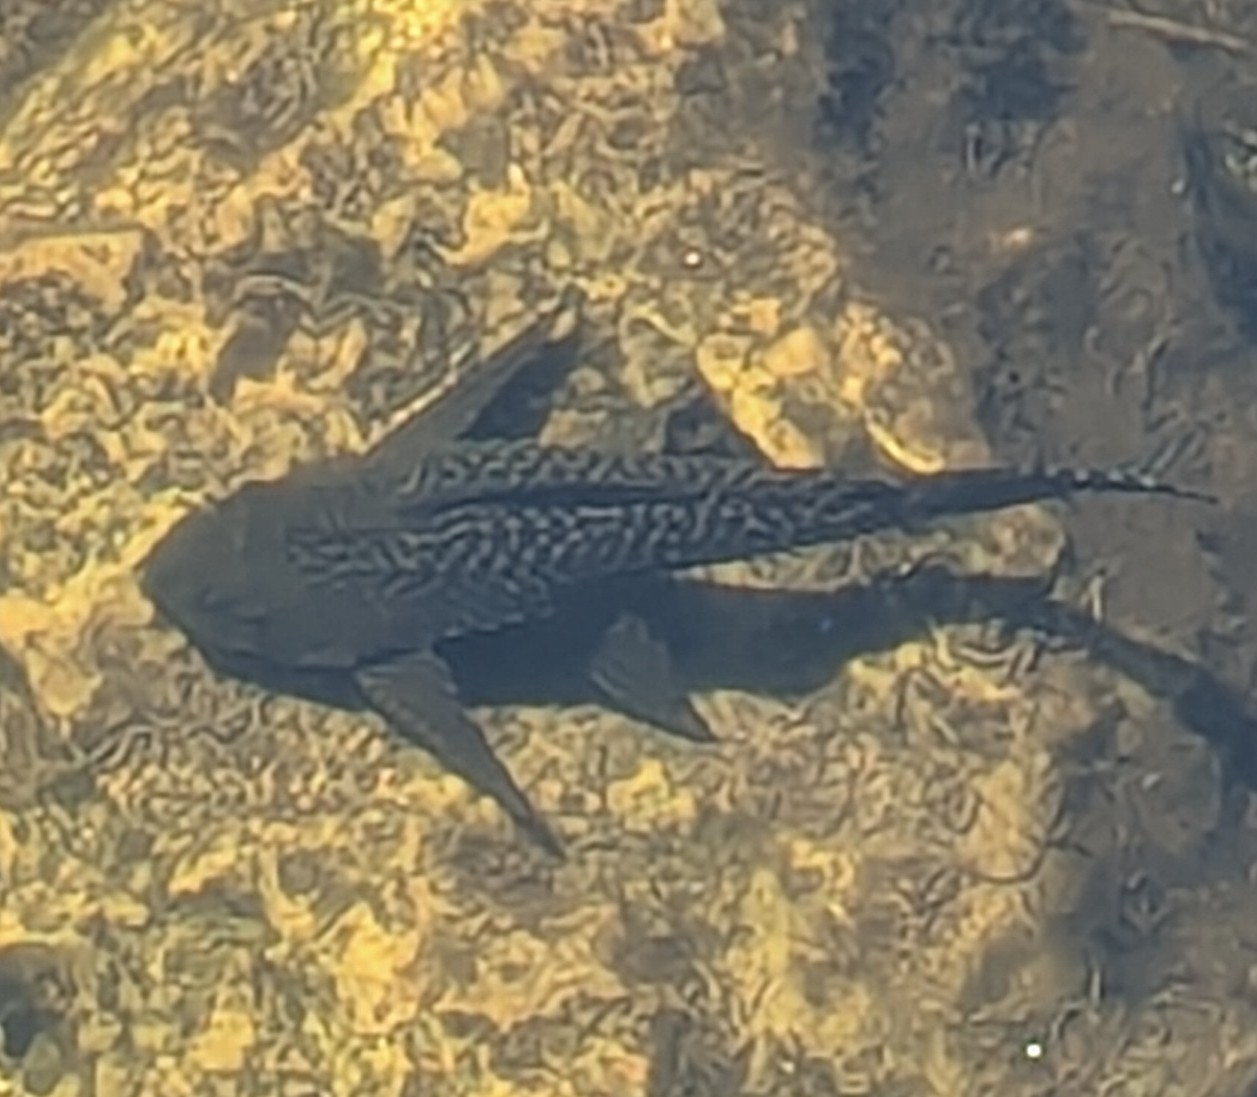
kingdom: Animalia
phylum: Chordata
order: Siluriformes
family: Loricariidae
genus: Pterygoplichthys
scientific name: Pterygoplichthys
